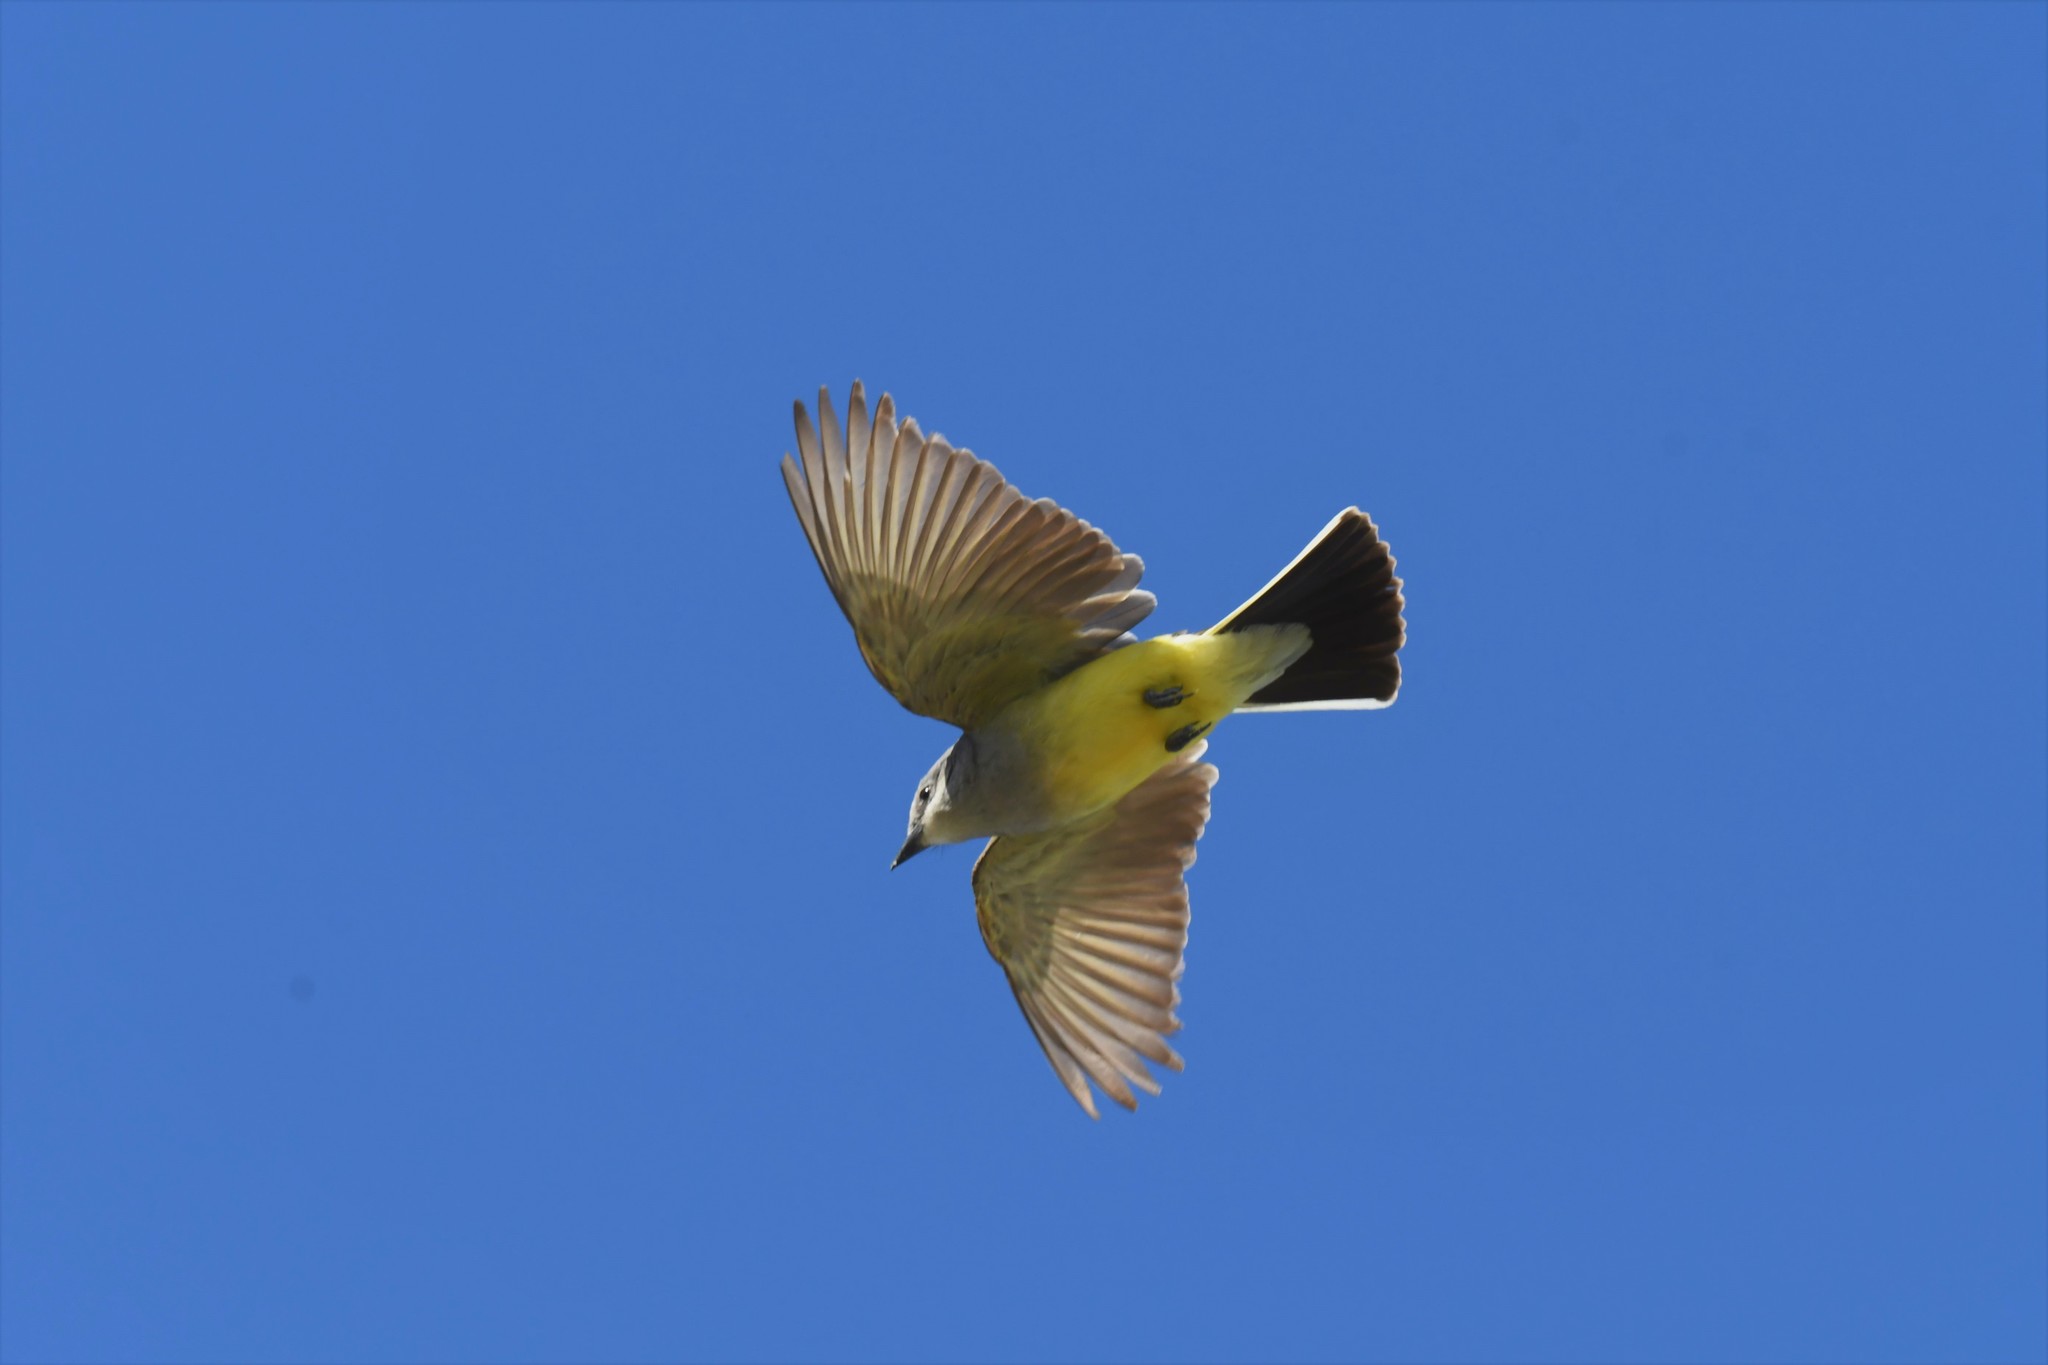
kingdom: Animalia
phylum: Chordata
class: Aves
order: Passeriformes
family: Tyrannidae
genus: Tyrannus
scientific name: Tyrannus verticalis
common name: Western kingbird
